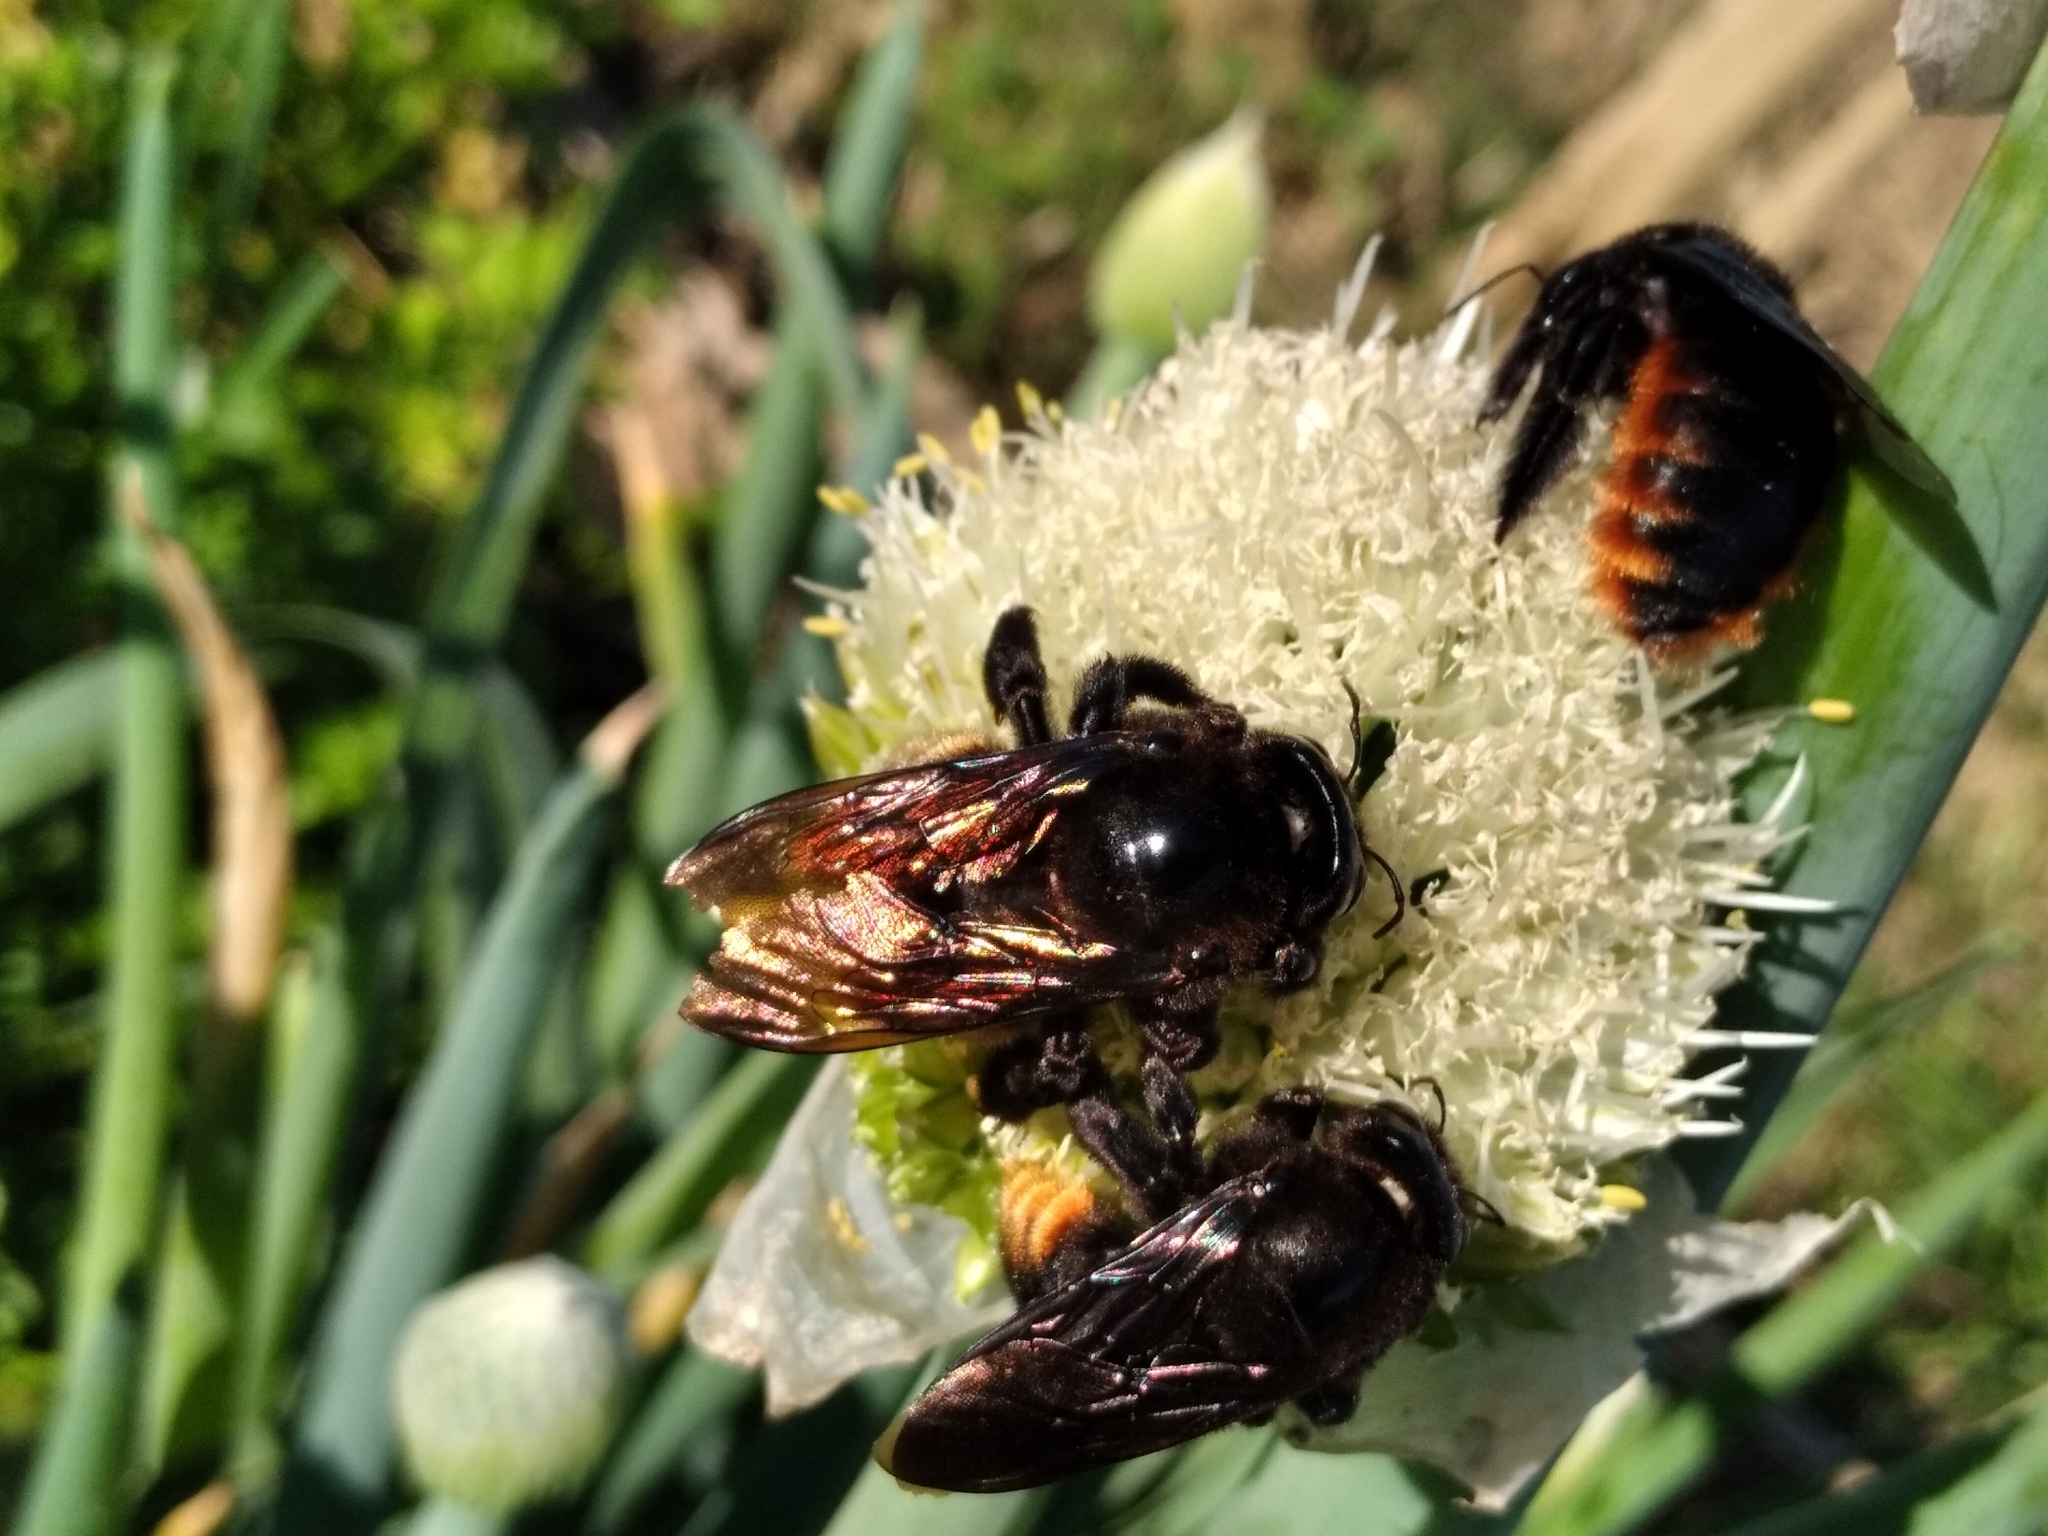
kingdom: Animalia
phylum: Arthropoda
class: Insecta
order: Hymenoptera
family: Apidae
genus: Xylocopa
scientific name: Xylocopa augusti
